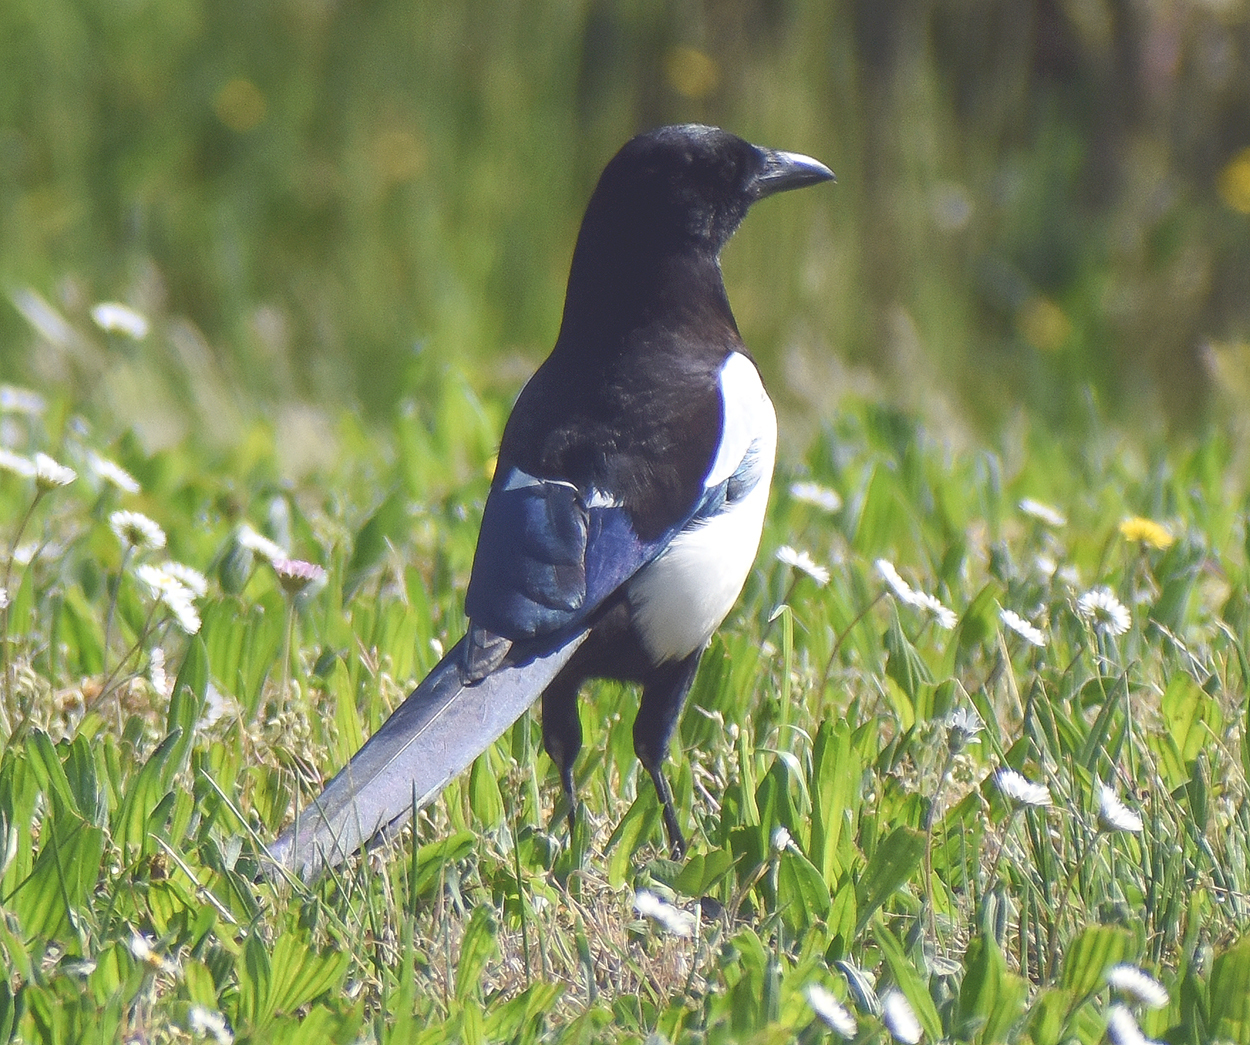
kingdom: Animalia
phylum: Chordata
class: Aves
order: Passeriformes
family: Corvidae
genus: Pica
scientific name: Pica pica
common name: Eurasian magpie
